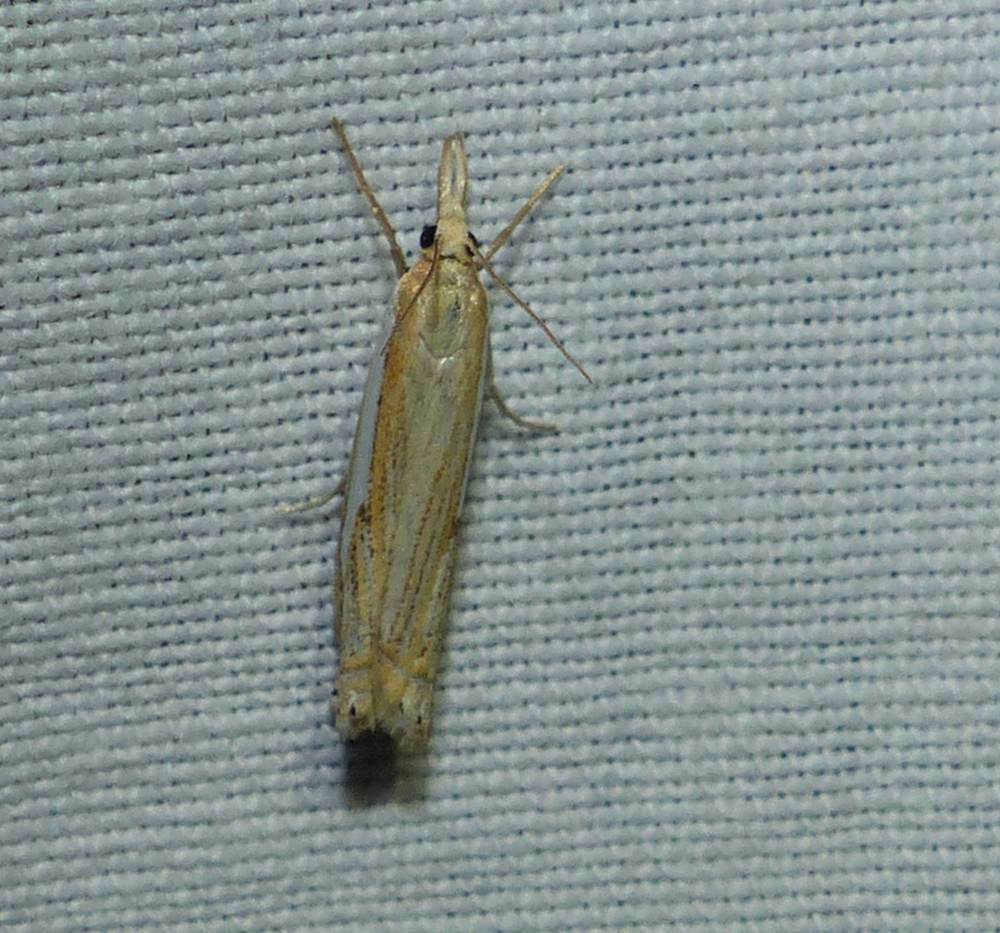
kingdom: Animalia
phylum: Arthropoda
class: Insecta
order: Lepidoptera
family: Crambidae
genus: Crambus
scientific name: Crambus saltuellus
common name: Pasture grass-veneer
